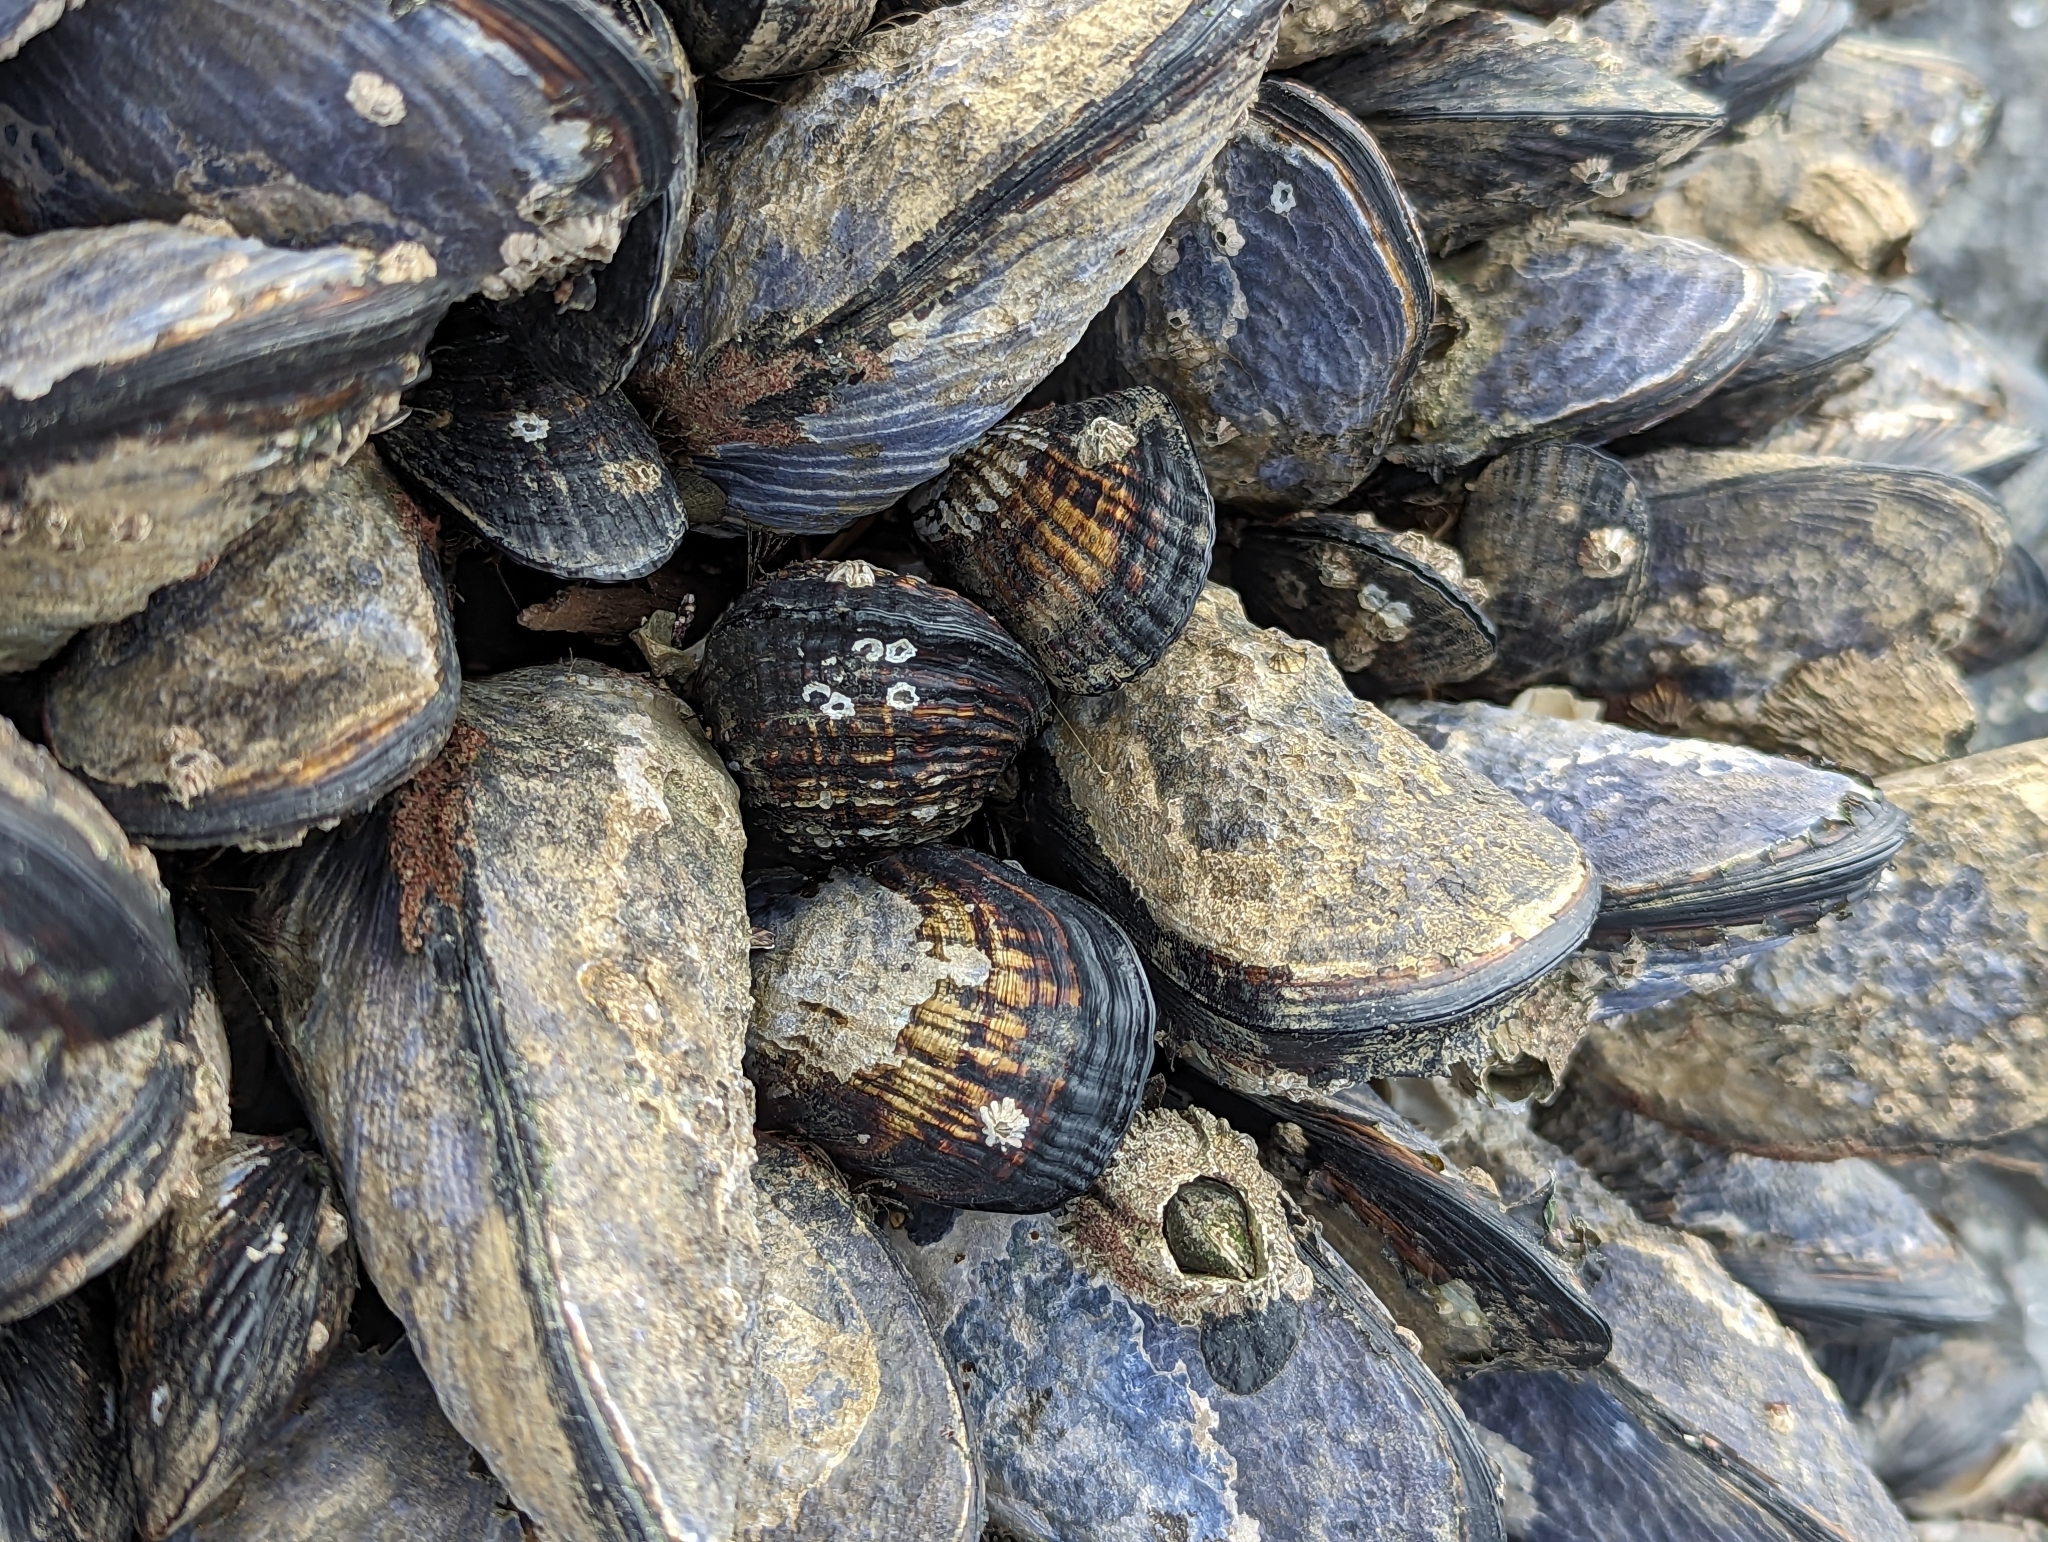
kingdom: Animalia
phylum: Mollusca
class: Bivalvia
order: Mytilida
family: Mytilidae
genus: Mytilus
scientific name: Mytilus californianus
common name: California mussel
